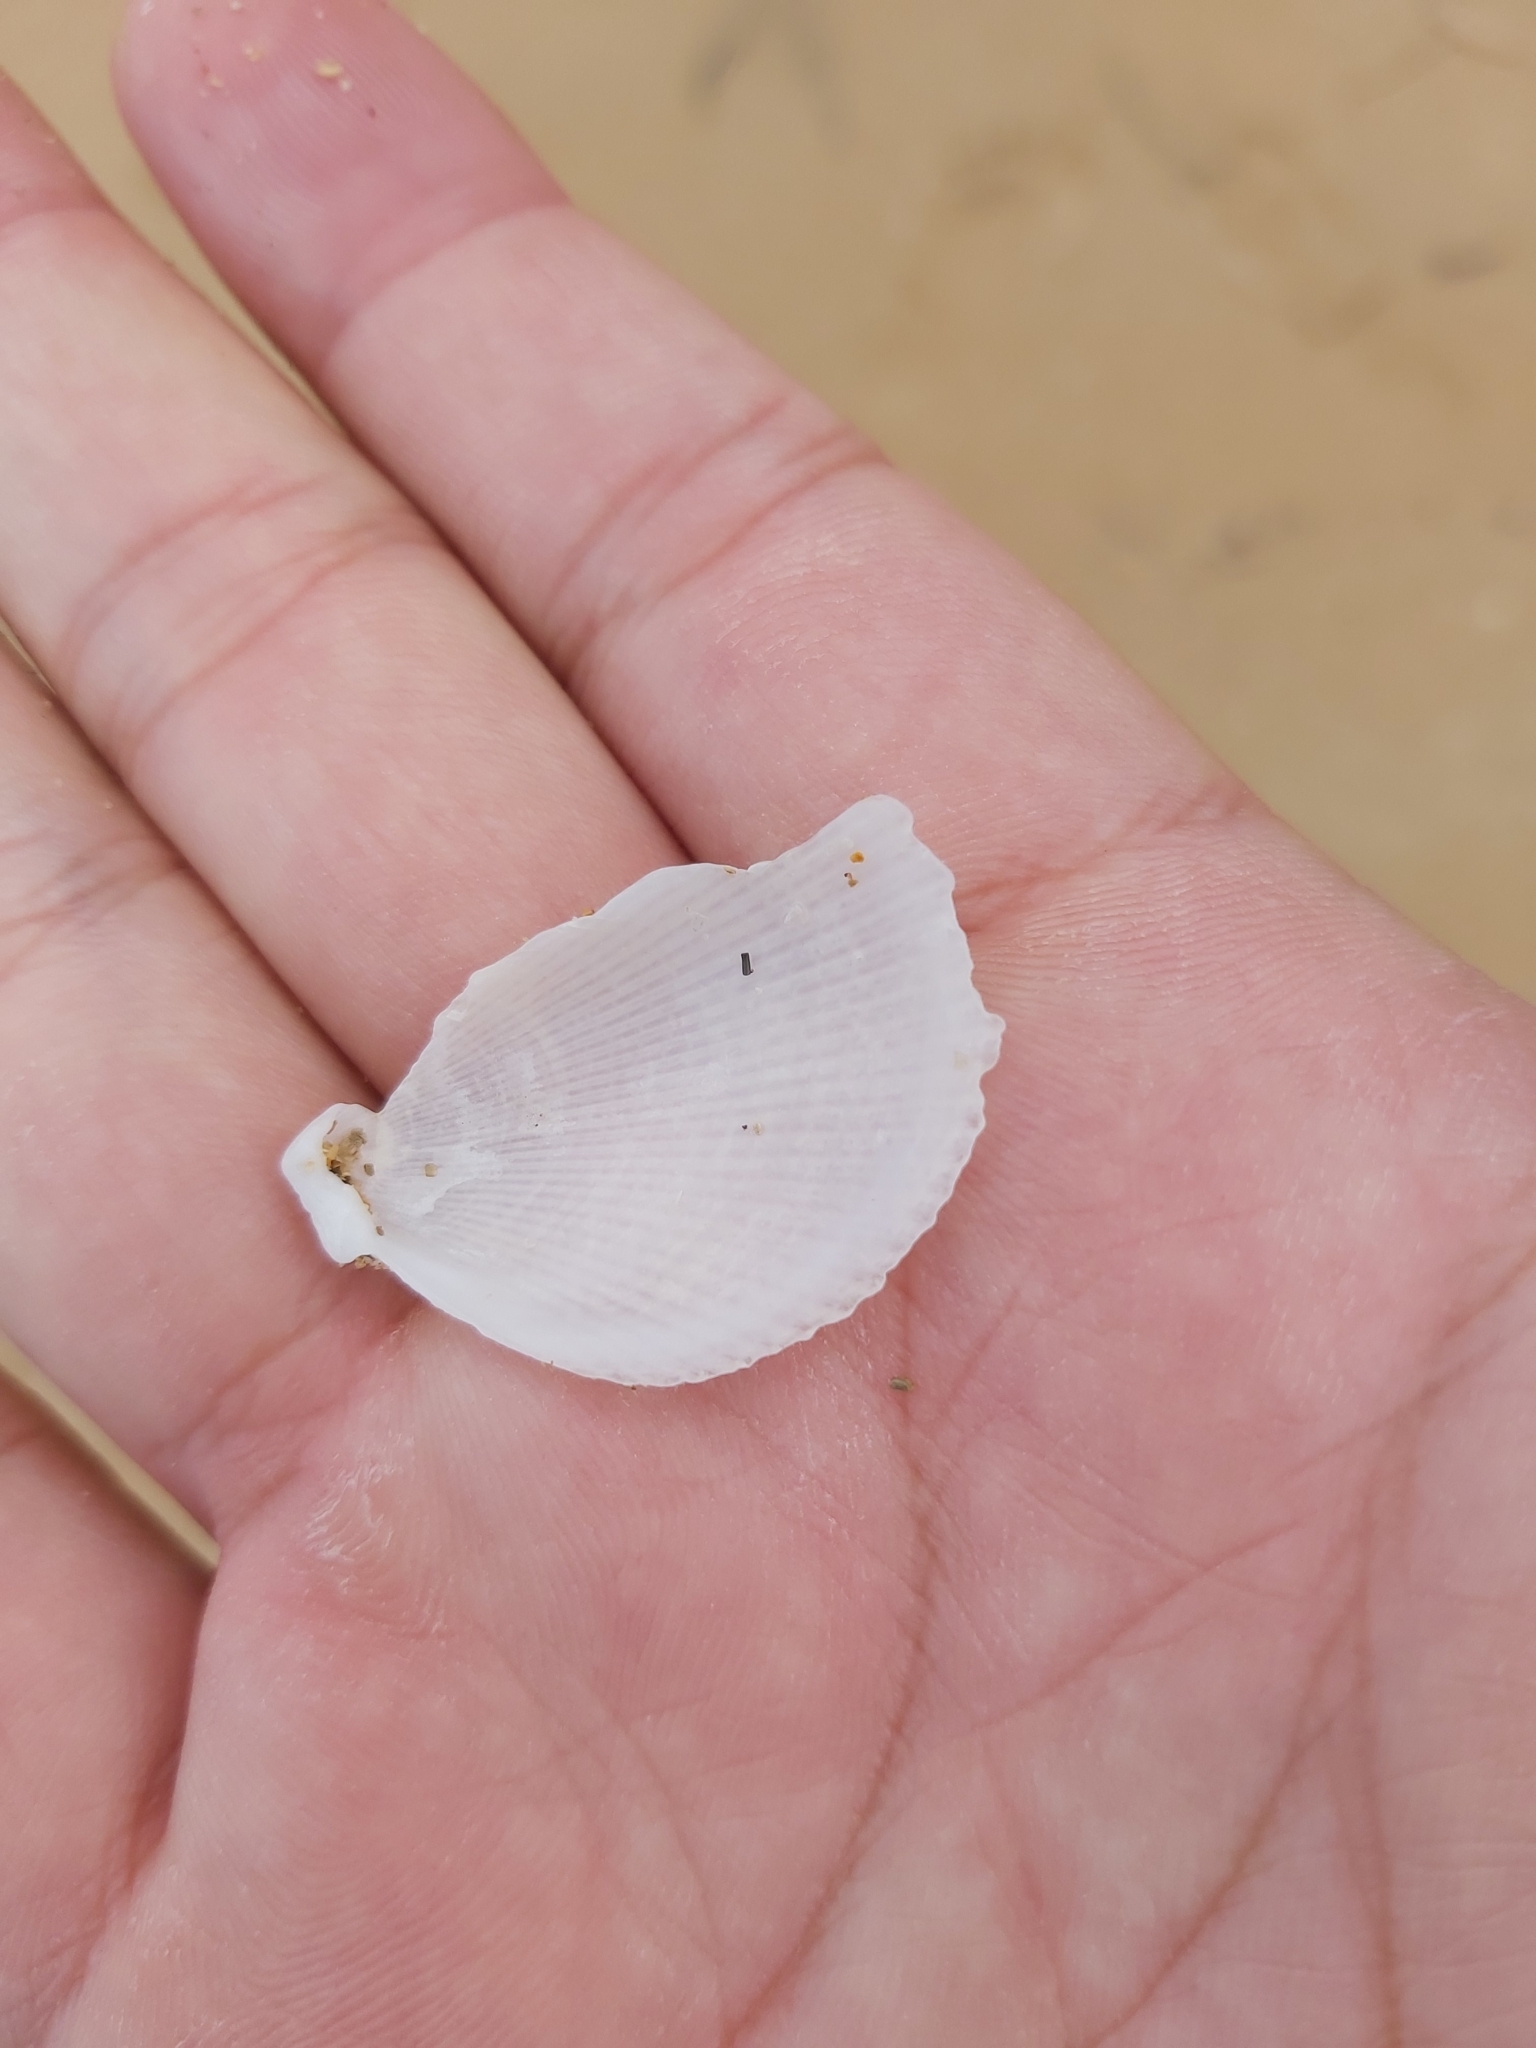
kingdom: Animalia
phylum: Mollusca
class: Bivalvia
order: Limida
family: Limidae
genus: Lima
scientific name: Lima nimbifer
